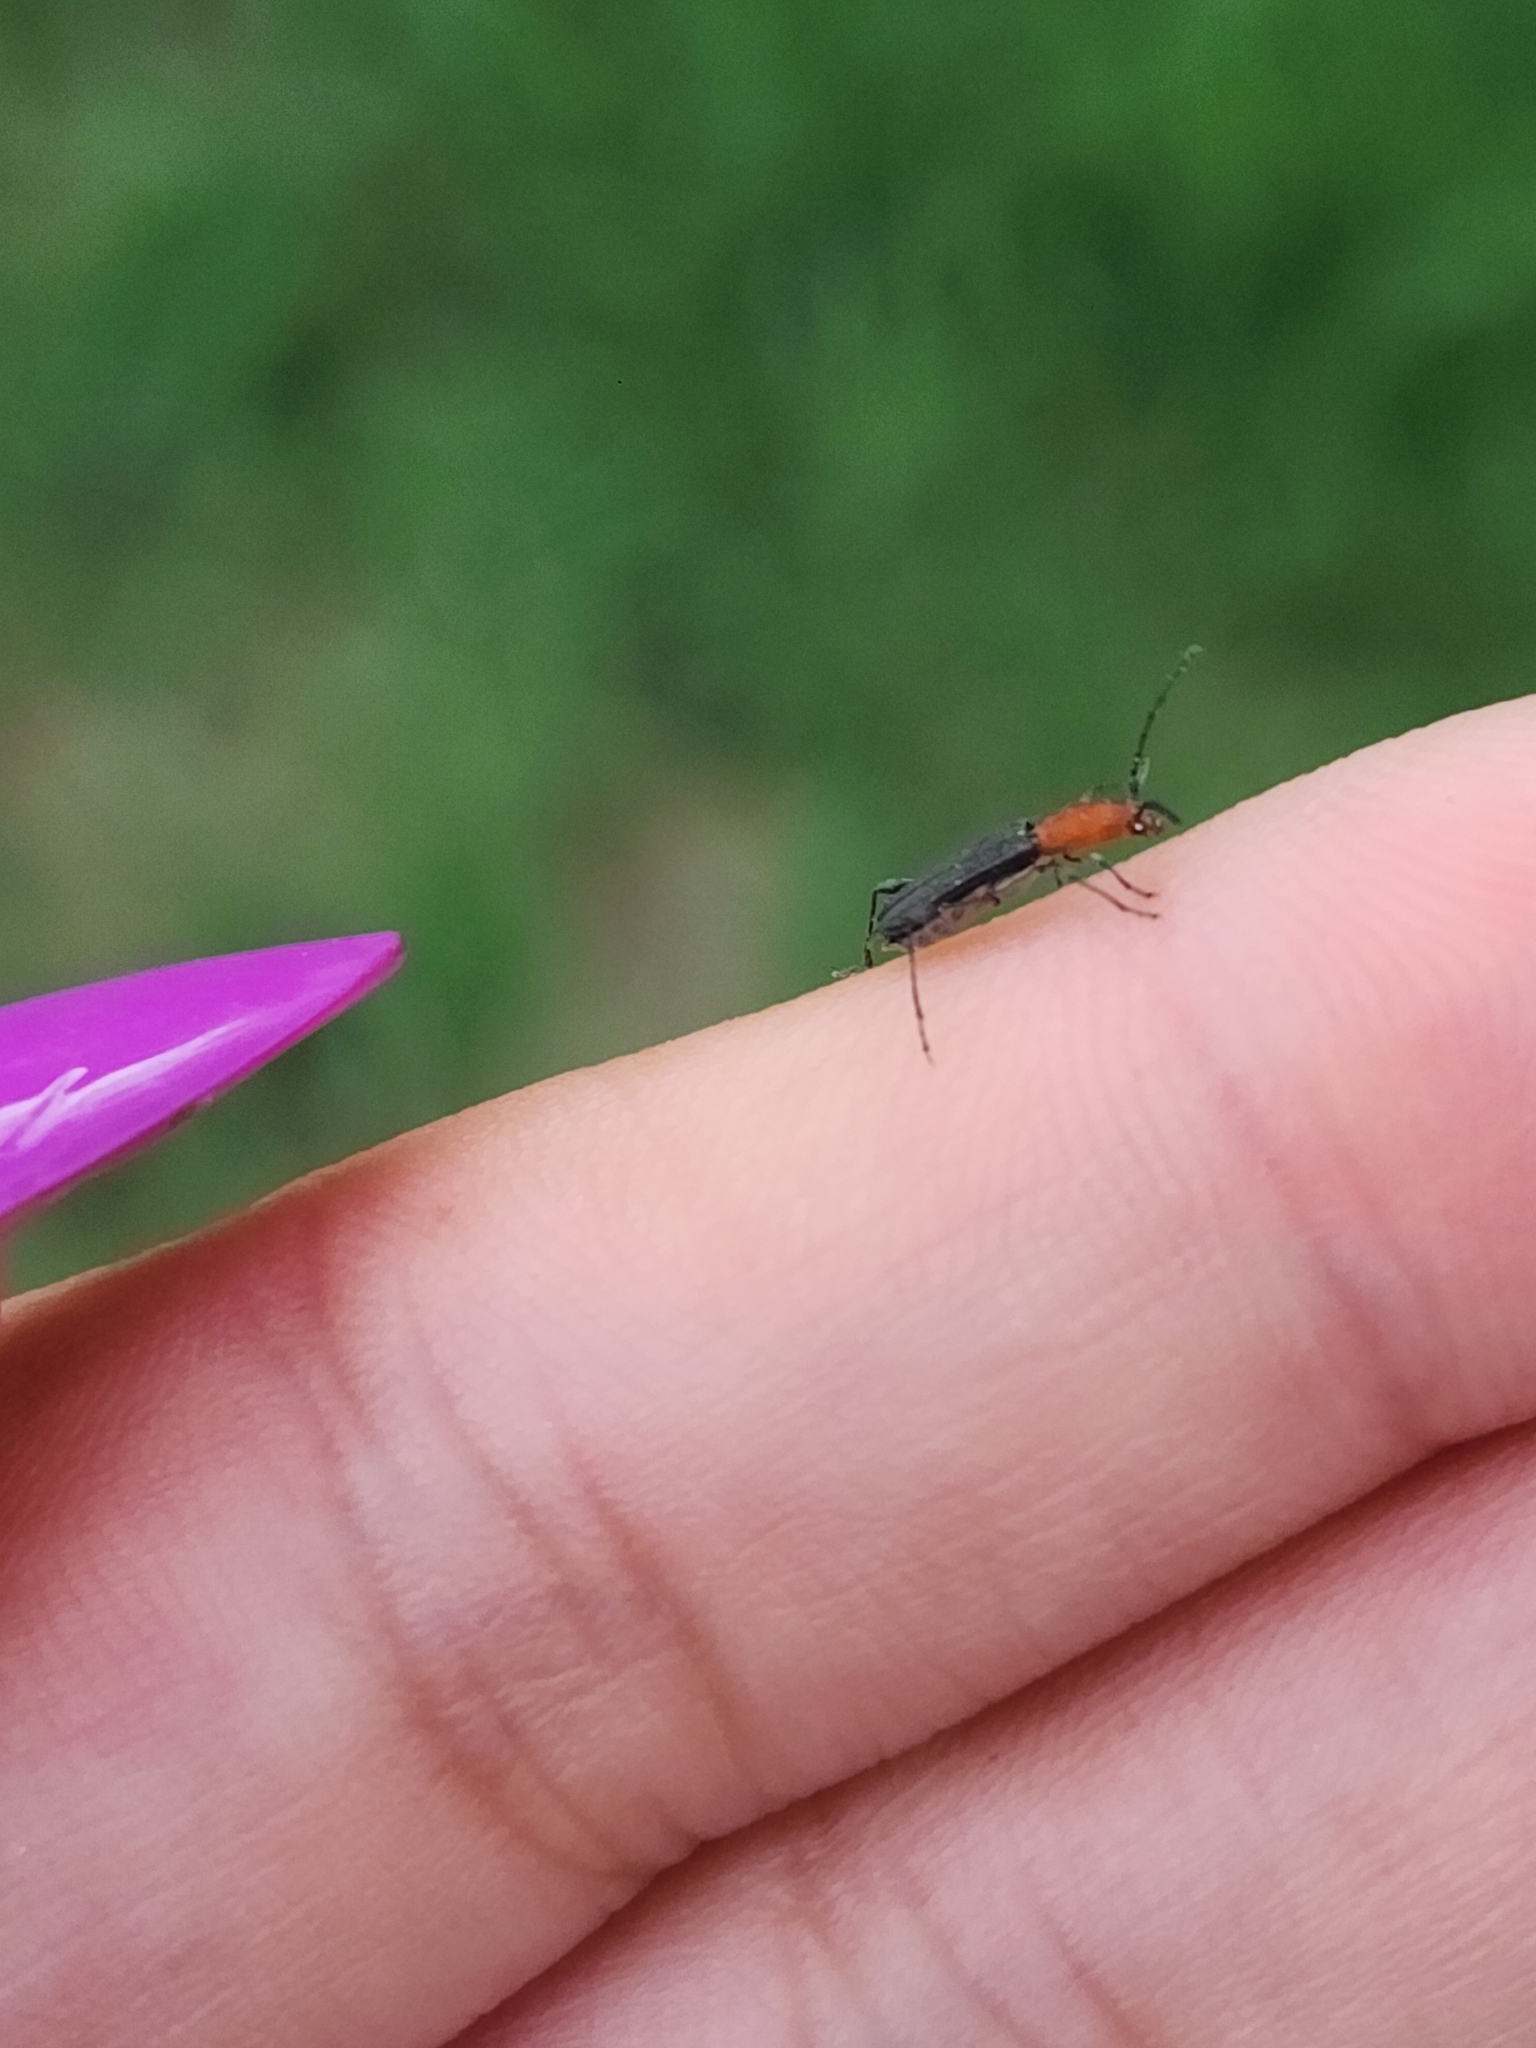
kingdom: Animalia
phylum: Arthropoda
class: Insecta
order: Coleoptera
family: Cerambycidae
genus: Dihammaphora
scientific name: Dihammaphora bruchi
